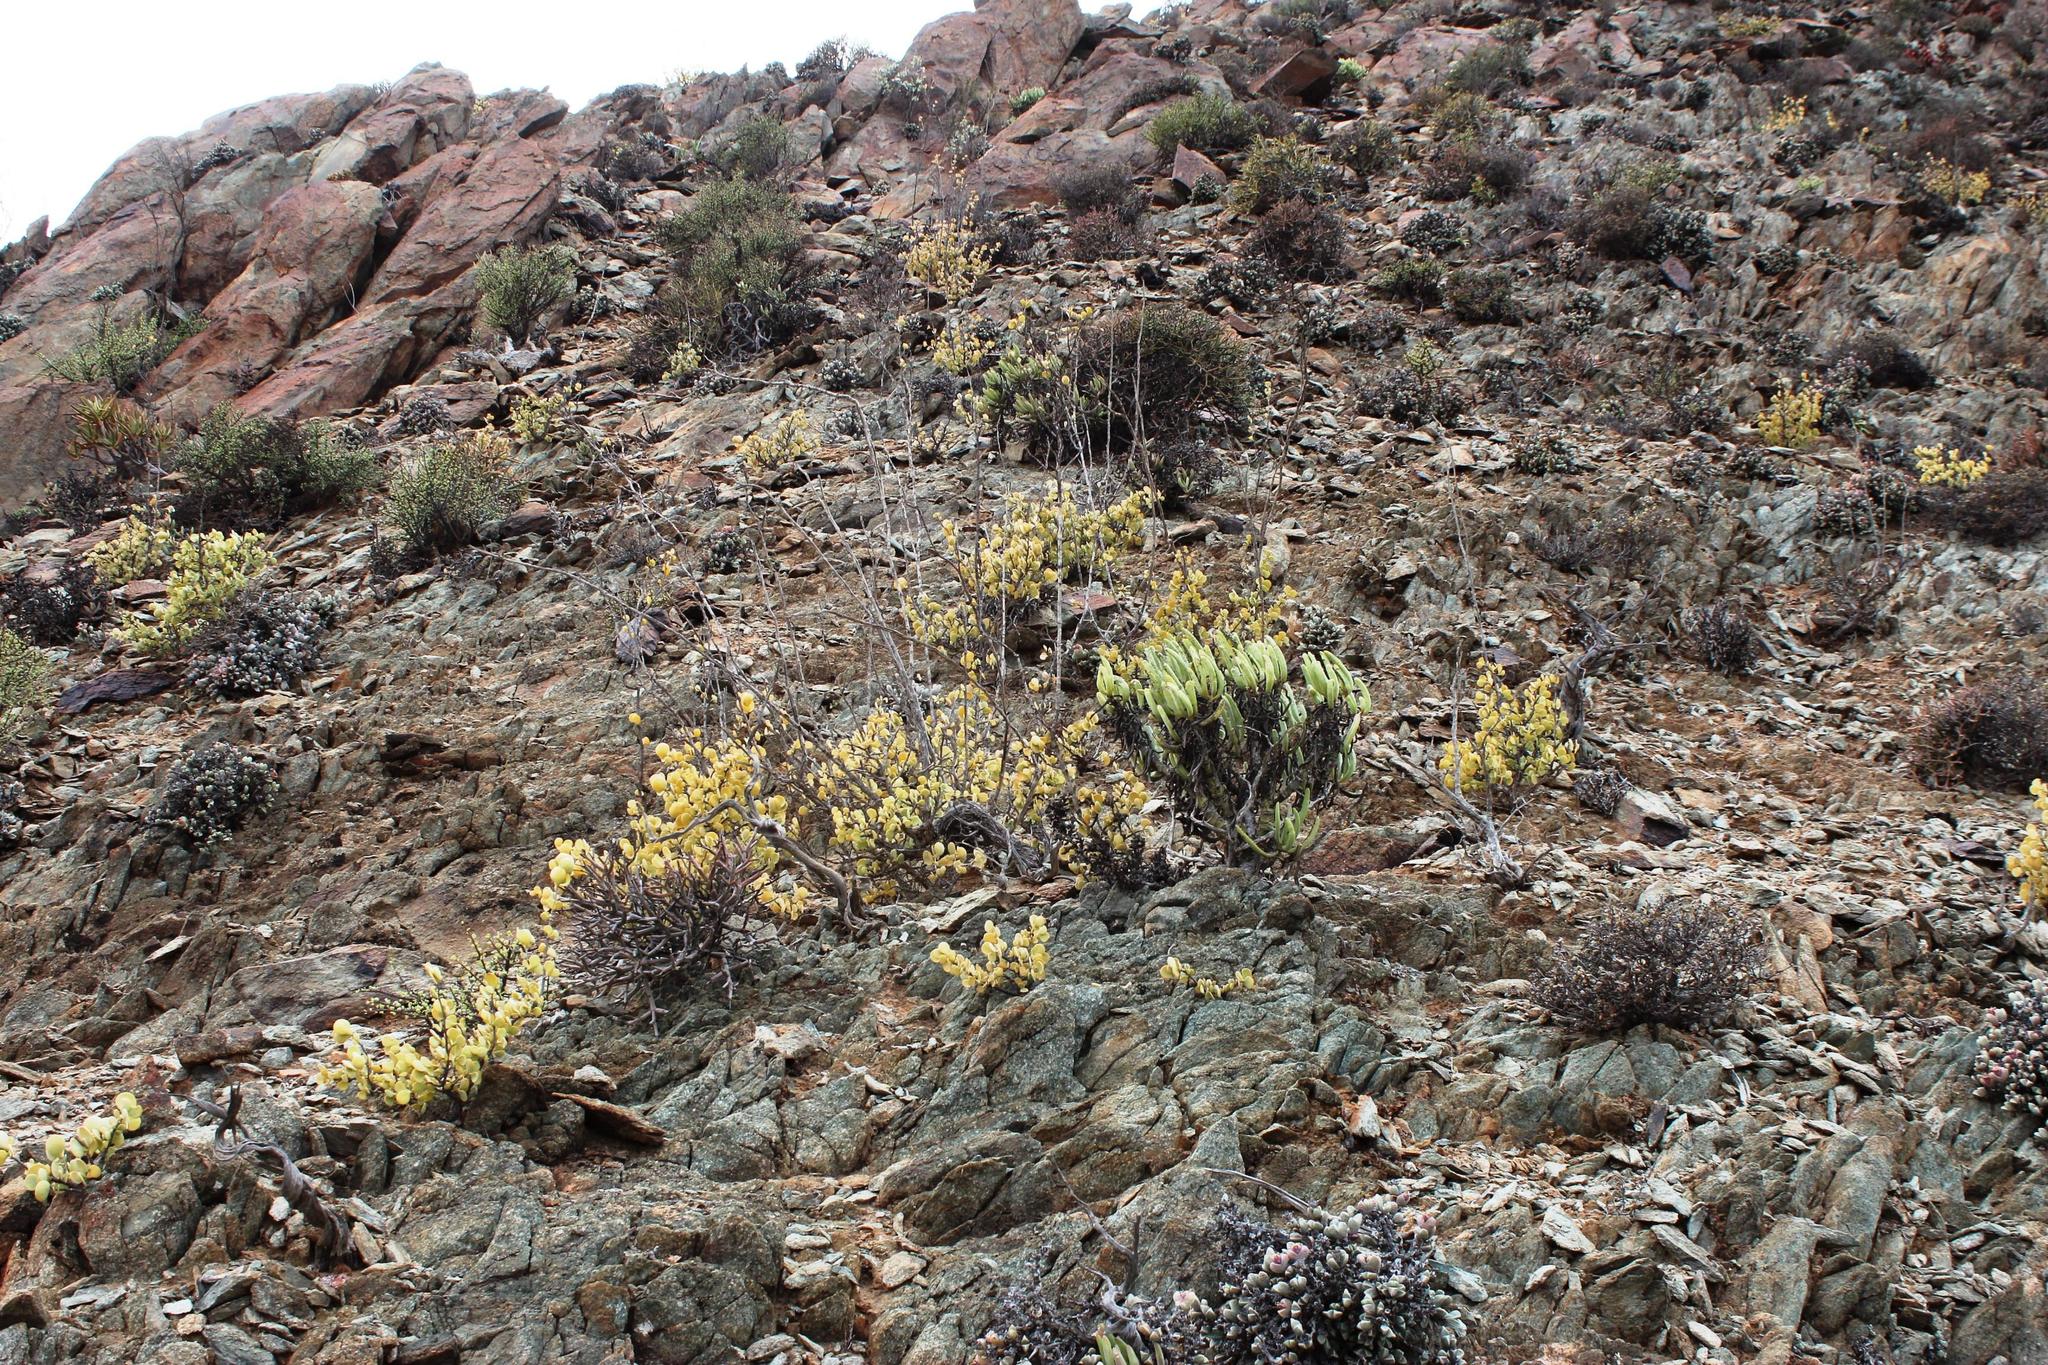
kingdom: Plantae
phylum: Tracheophyta
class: Magnoliopsida
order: Zygophyllales
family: Zygophyllaceae
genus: Tetraena
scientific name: Tetraena prismatocarpa
